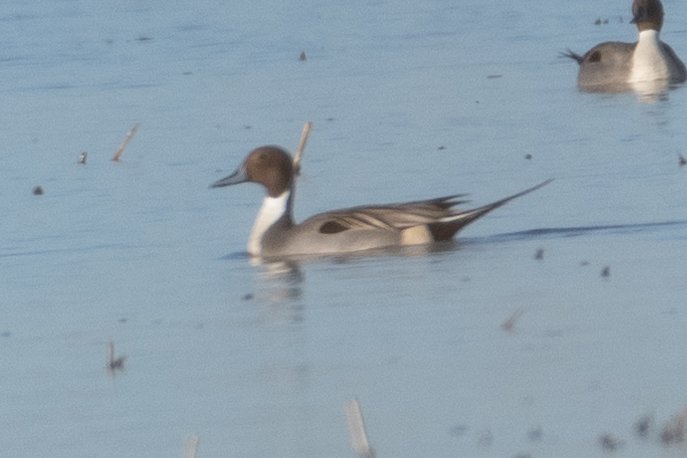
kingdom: Animalia
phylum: Chordata
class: Aves
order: Anseriformes
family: Anatidae
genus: Anas
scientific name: Anas acuta
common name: Northern pintail
